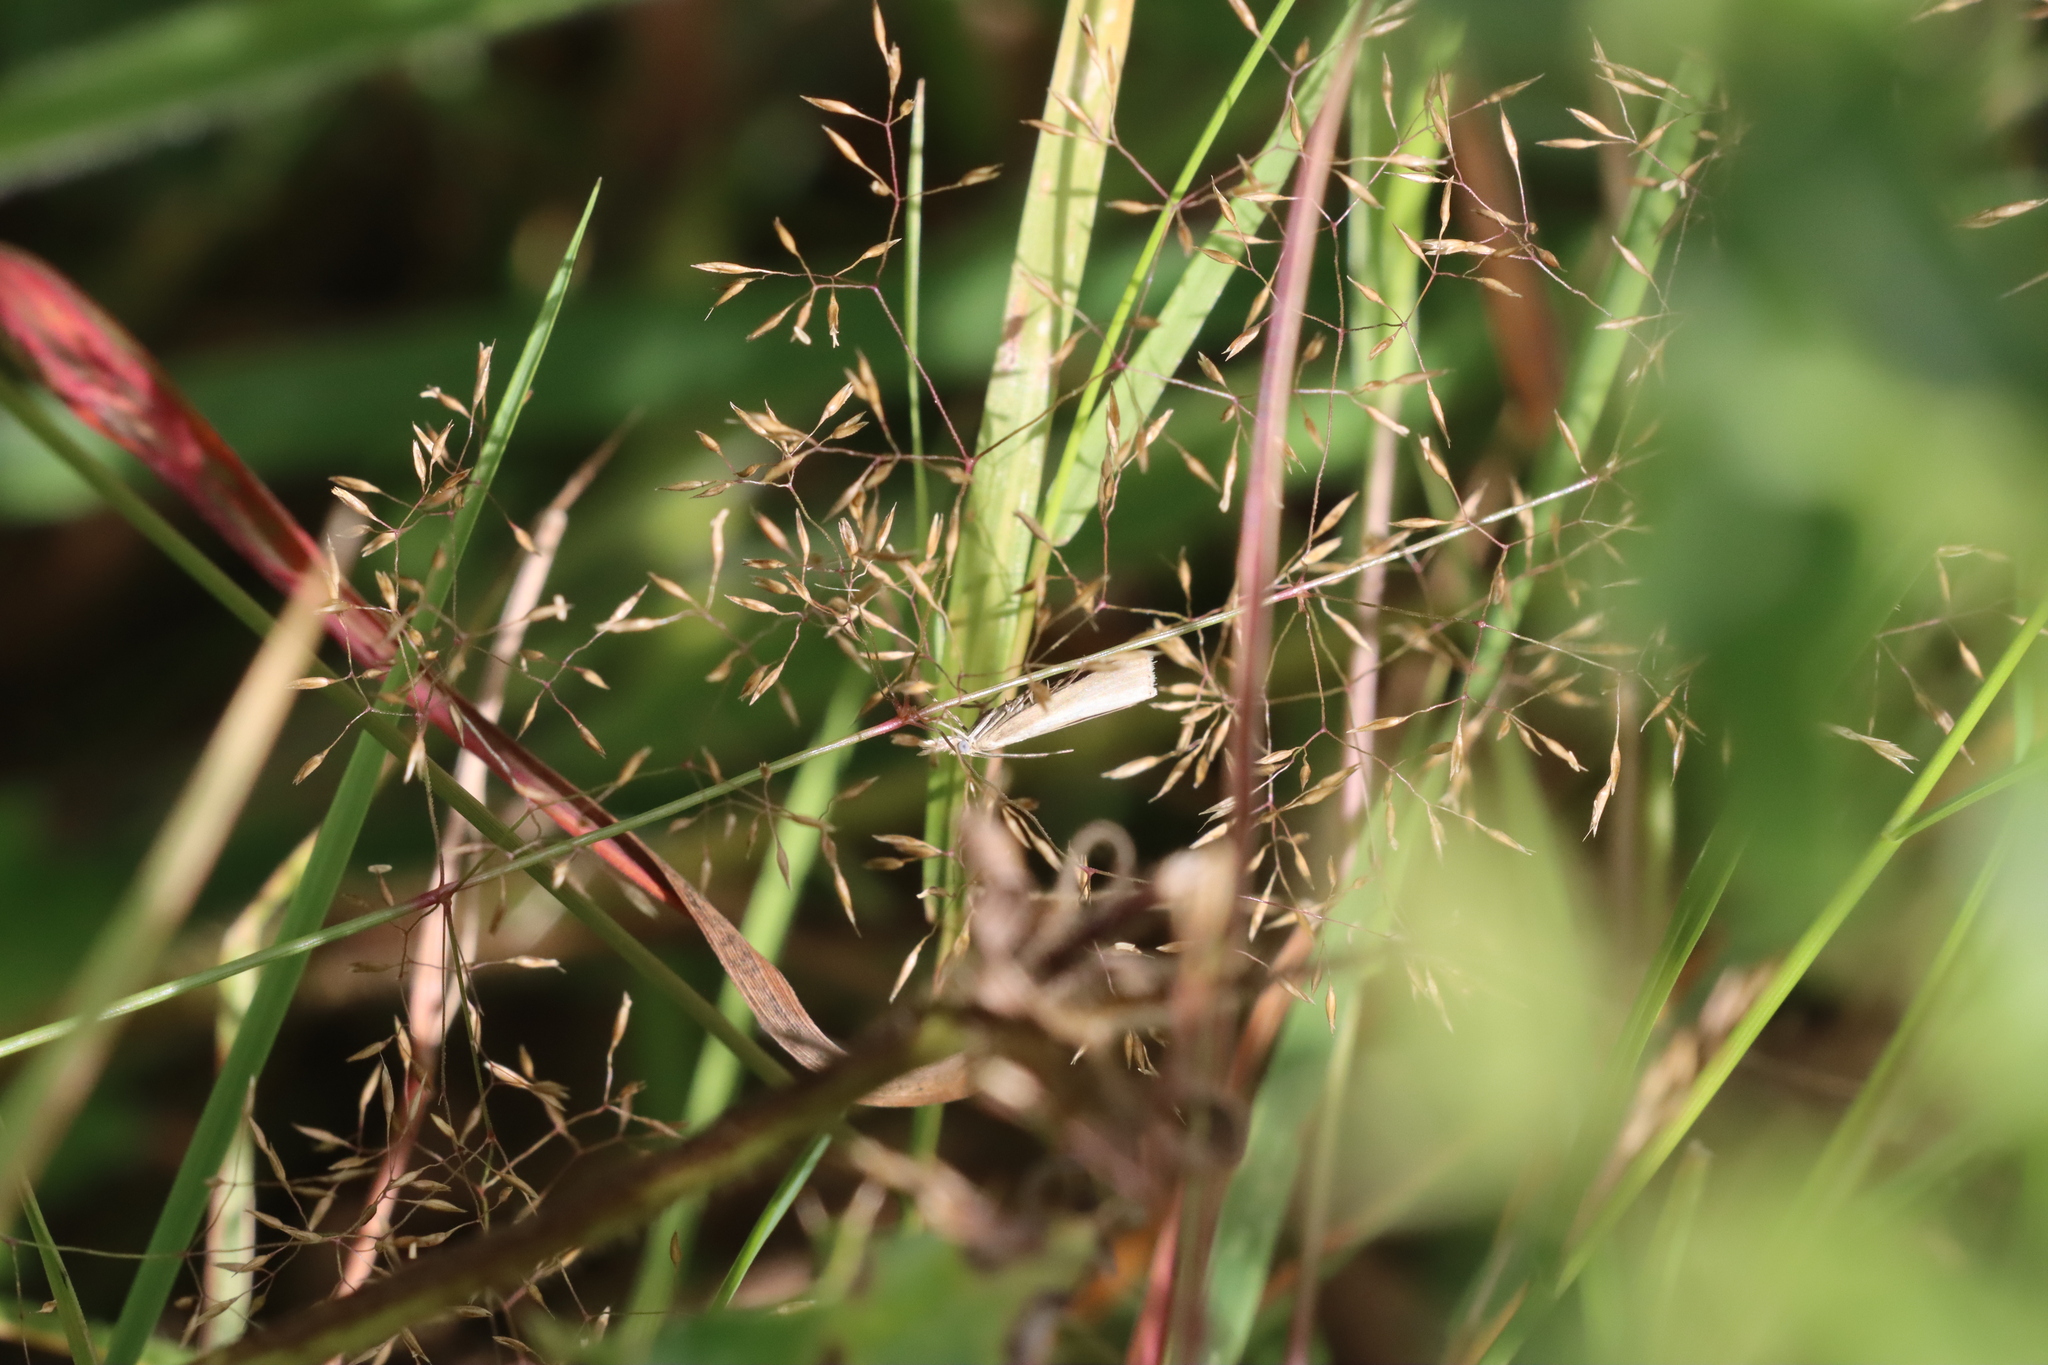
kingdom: Animalia
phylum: Arthropoda
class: Insecta
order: Lepidoptera
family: Crambidae
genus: Agriphila
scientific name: Agriphila straminella
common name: Straw grass-veneer
